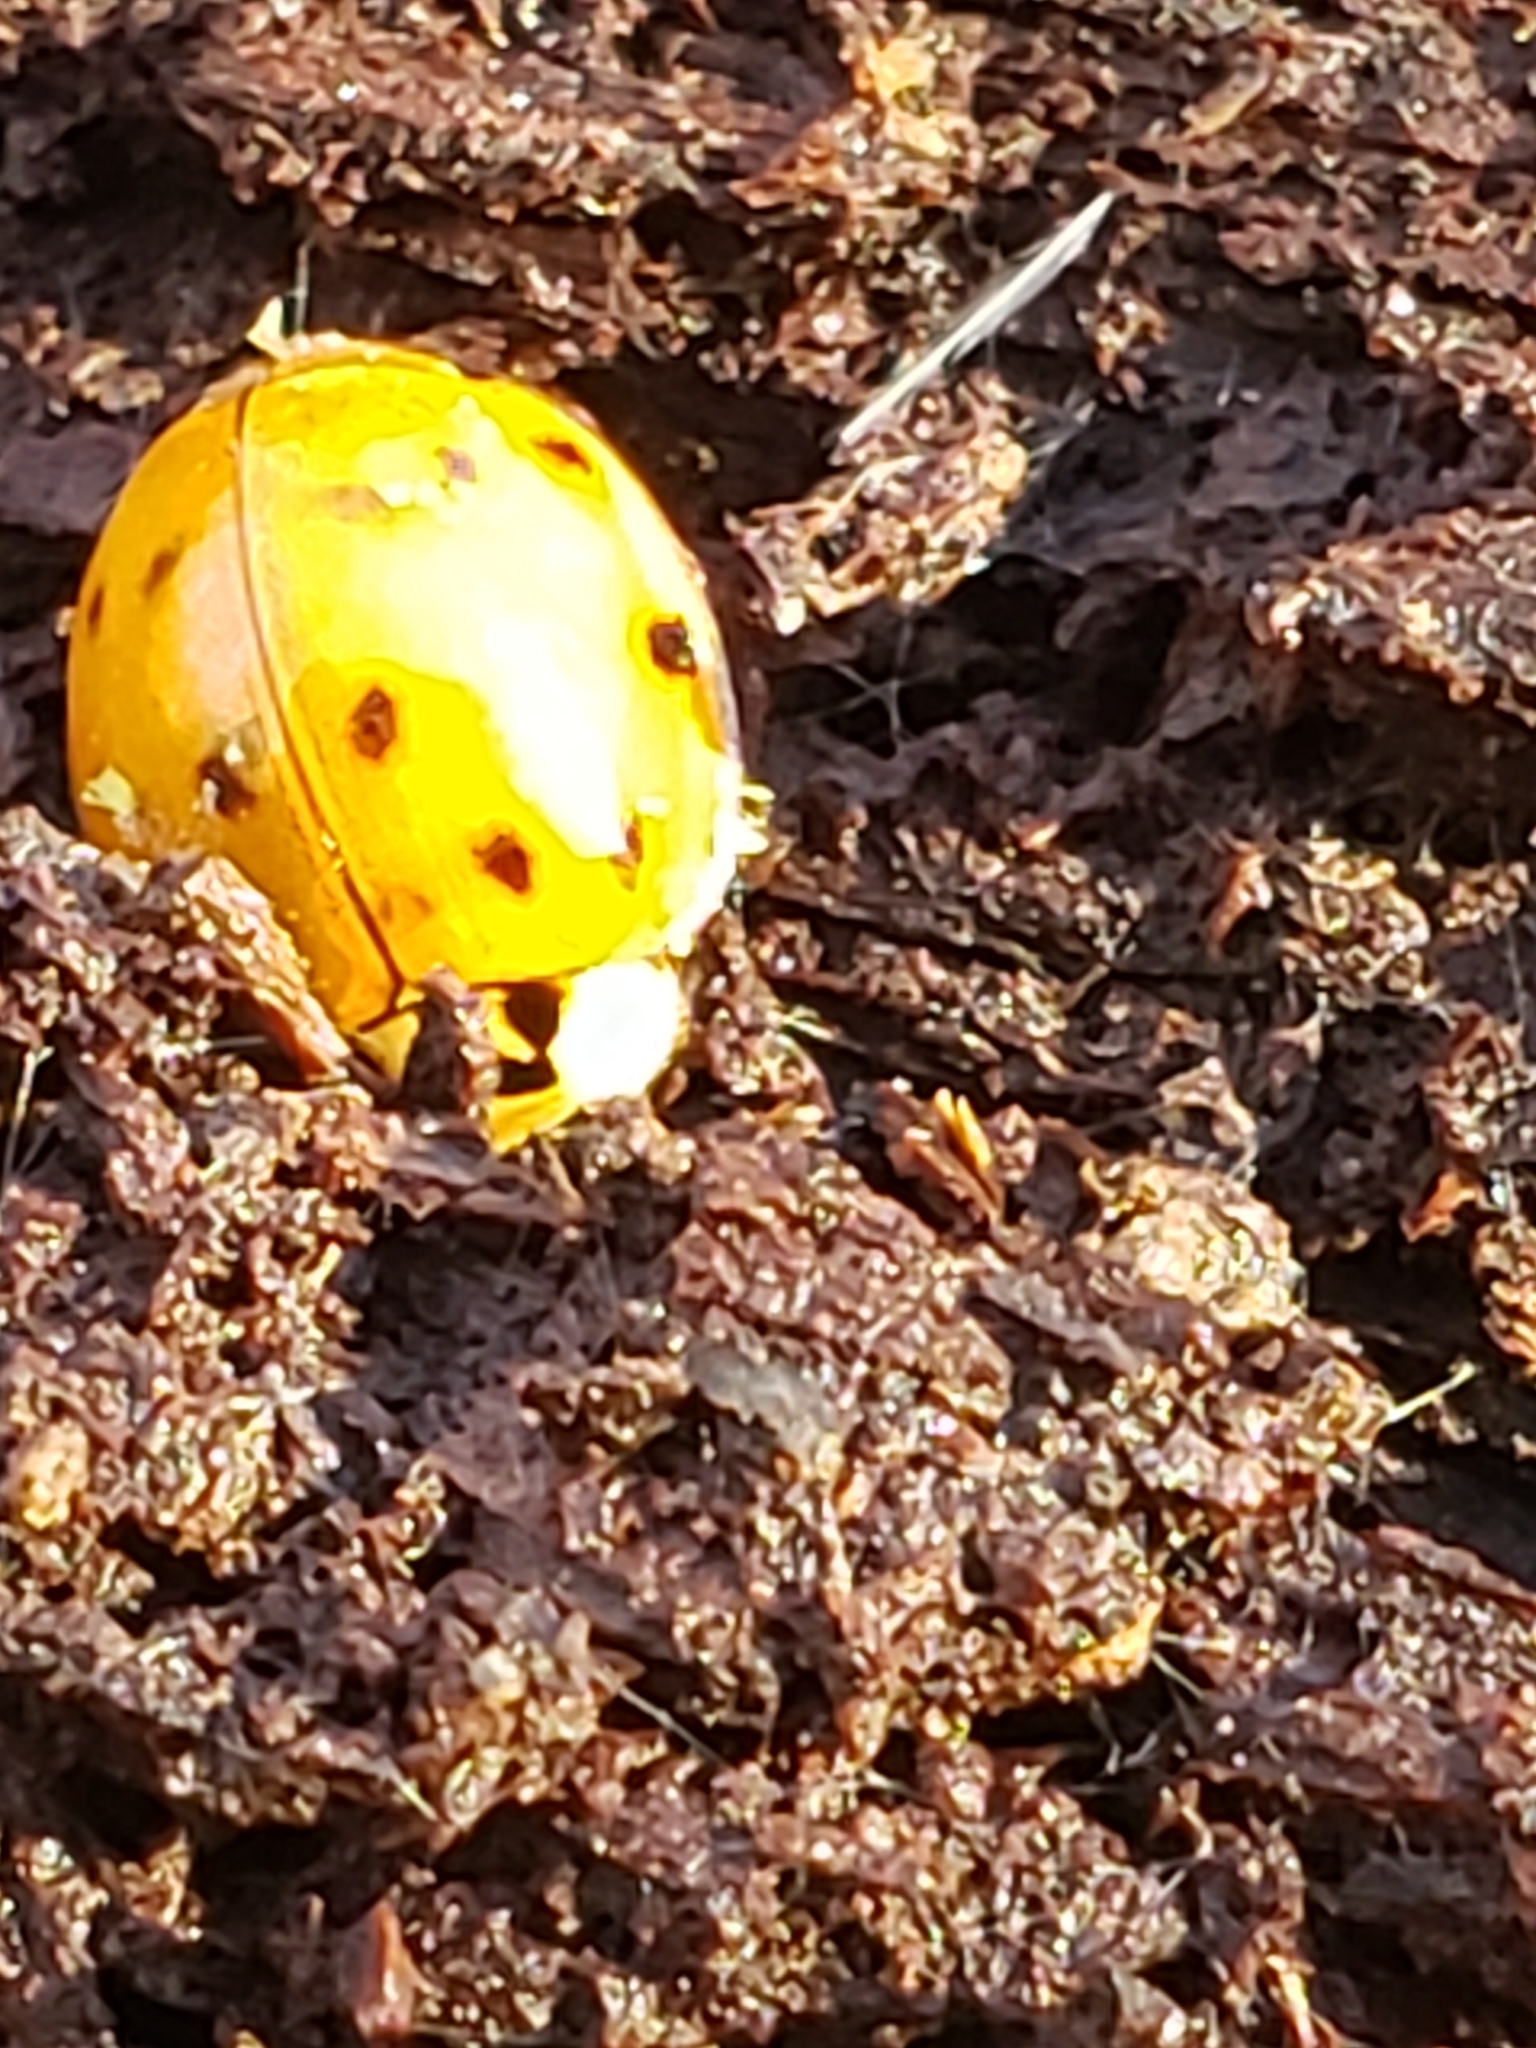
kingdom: Animalia
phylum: Arthropoda
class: Insecta
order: Coleoptera
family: Coccinellidae
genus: Harmonia
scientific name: Harmonia axyridis
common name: Harlequin ladybird
